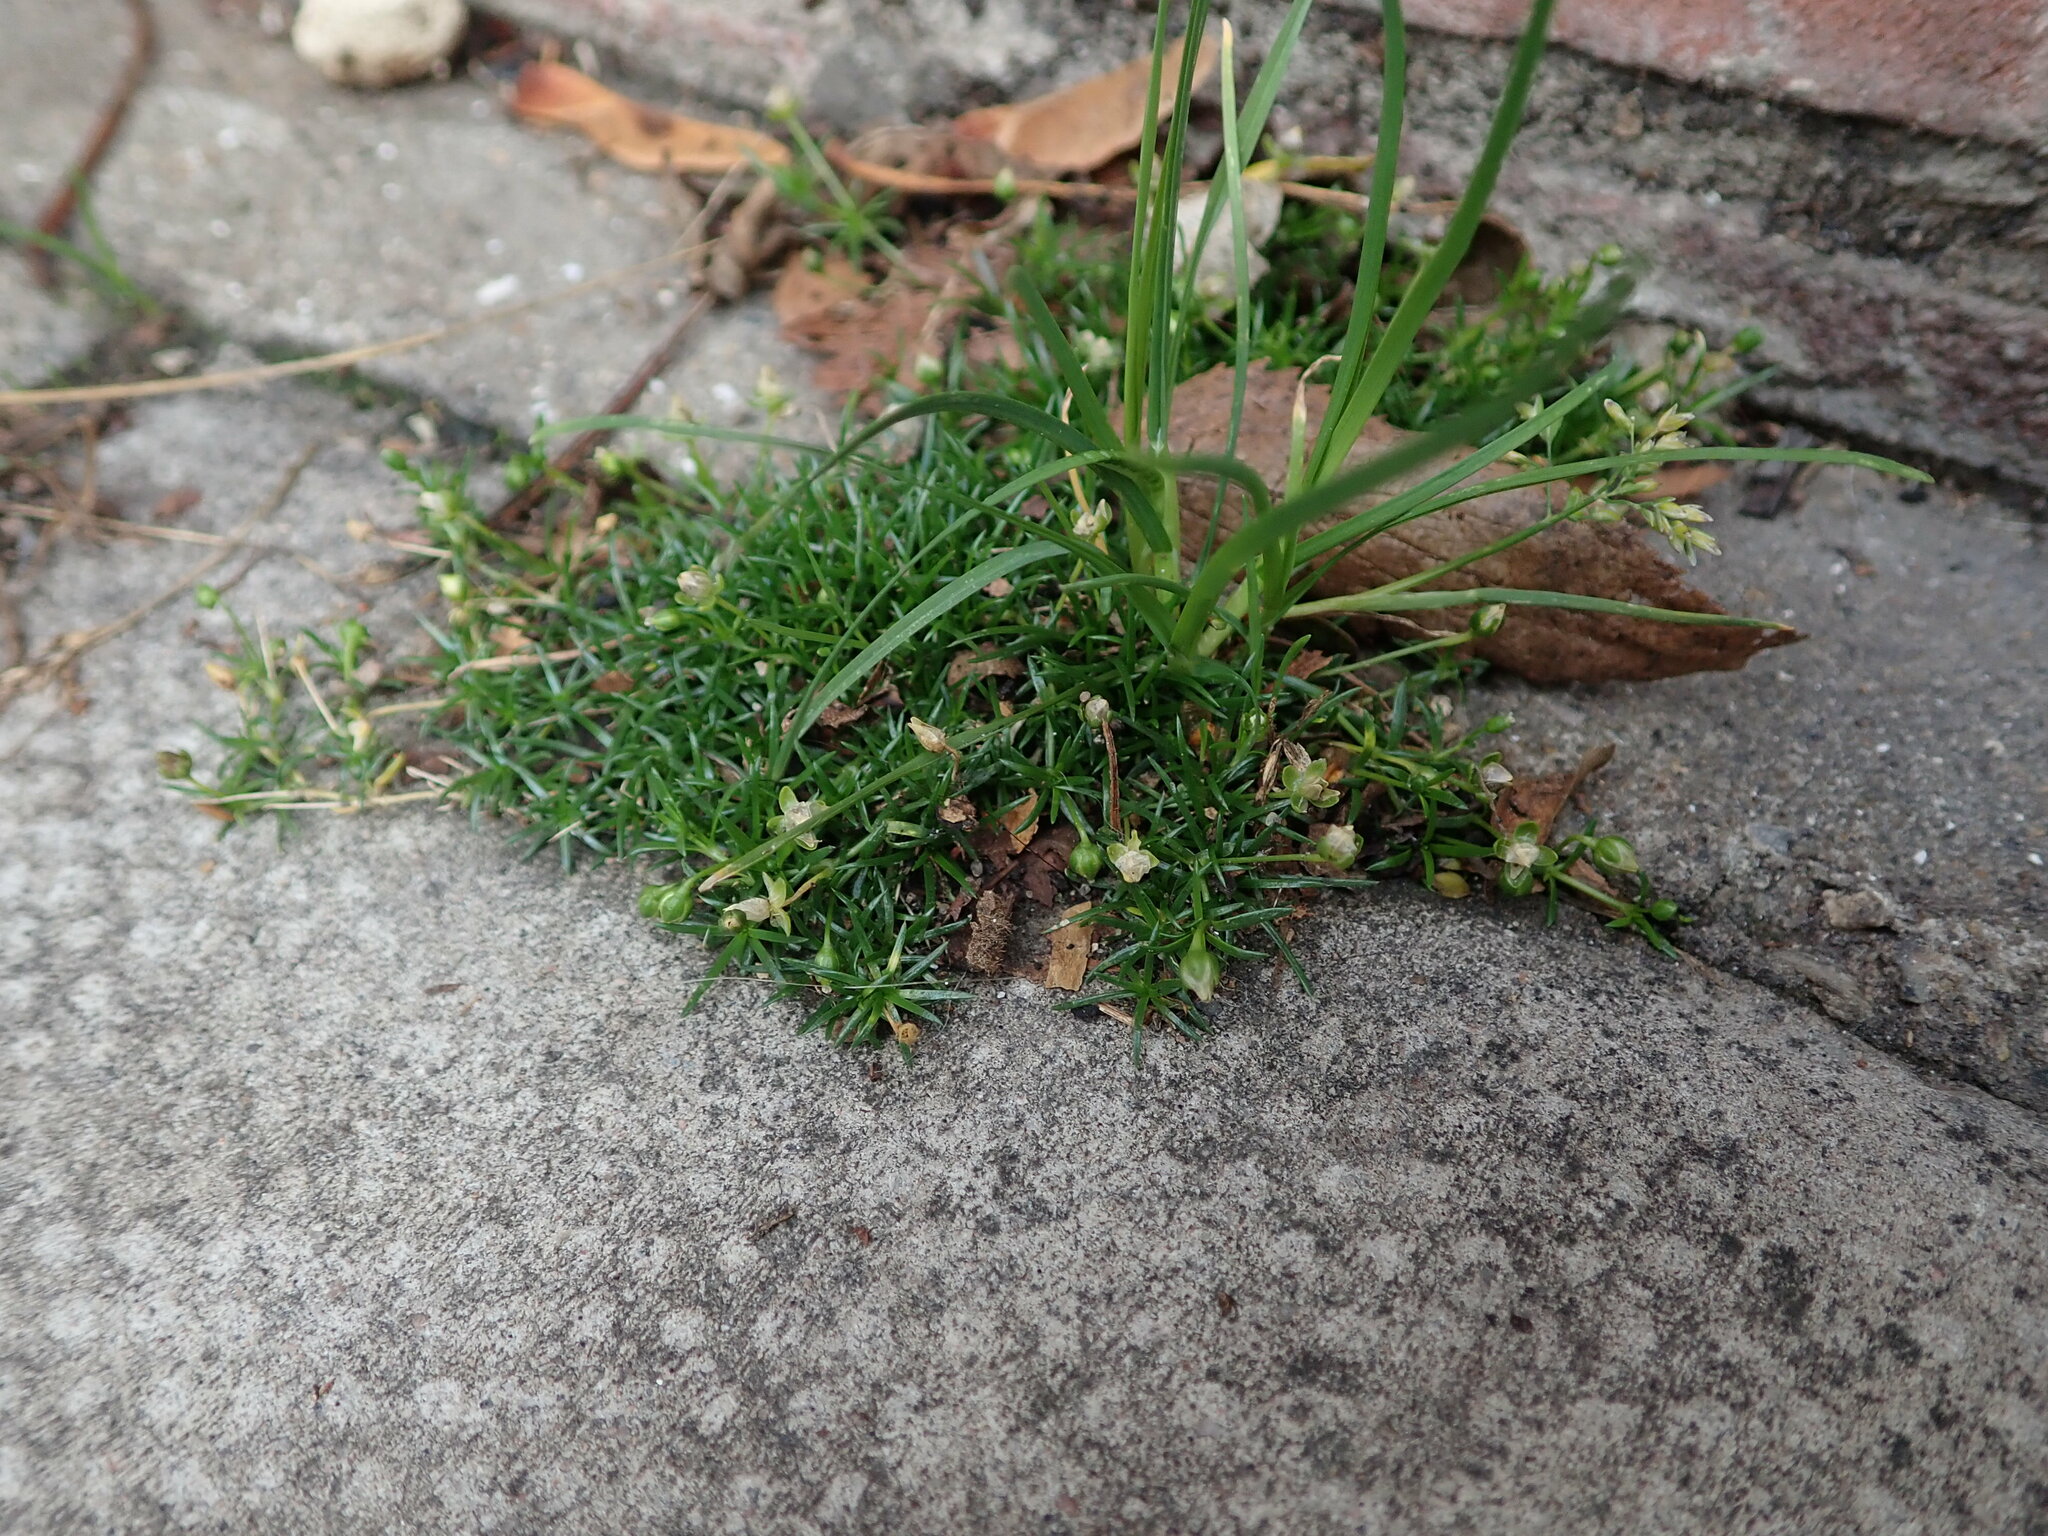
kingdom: Plantae
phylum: Tracheophyta
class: Magnoliopsida
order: Caryophyllales
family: Caryophyllaceae
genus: Sagina
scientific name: Sagina procumbens
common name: Procumbent pearlwort
